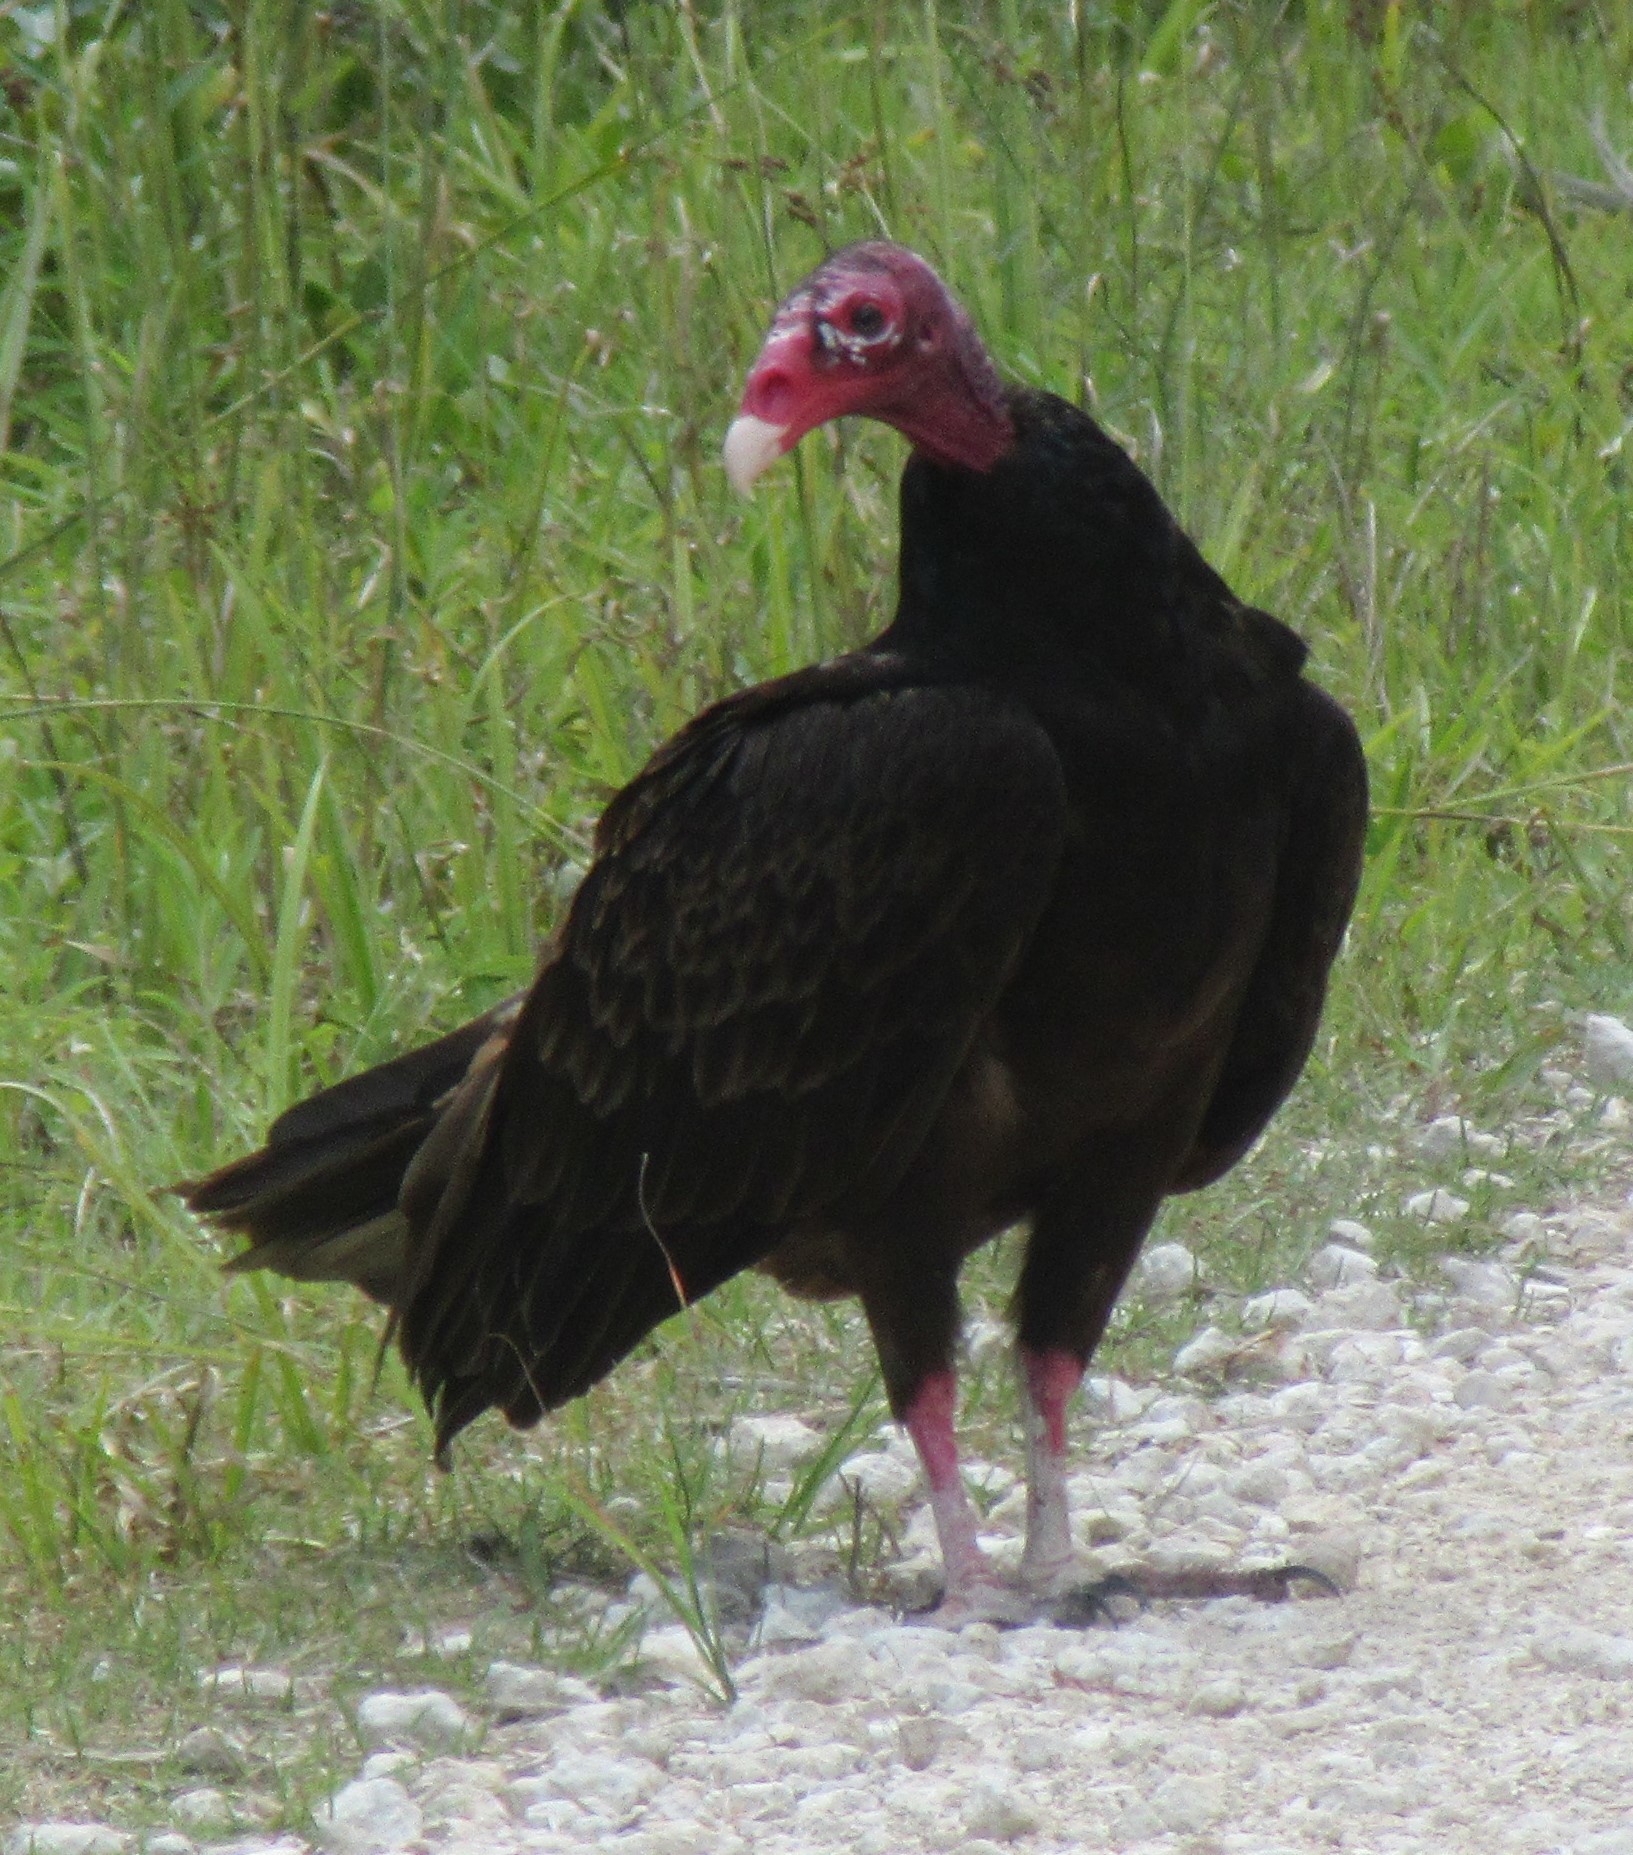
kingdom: Animalia
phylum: Chordata
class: Aves
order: Accipitriformes
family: Cathartidae
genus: Cathartes
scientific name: Cathartes aura
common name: Turkey vulture
